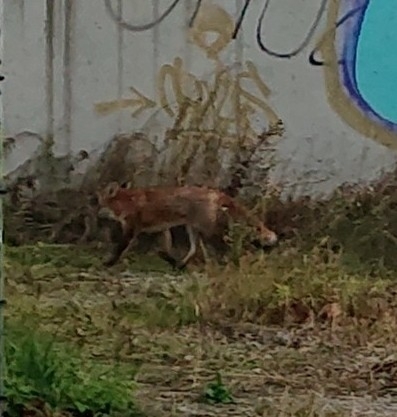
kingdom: Animalia
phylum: Chordata
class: Mammalia
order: Carnivora
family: Canidae
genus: Vulpes
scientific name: Vulpes vulpes
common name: Red fox
